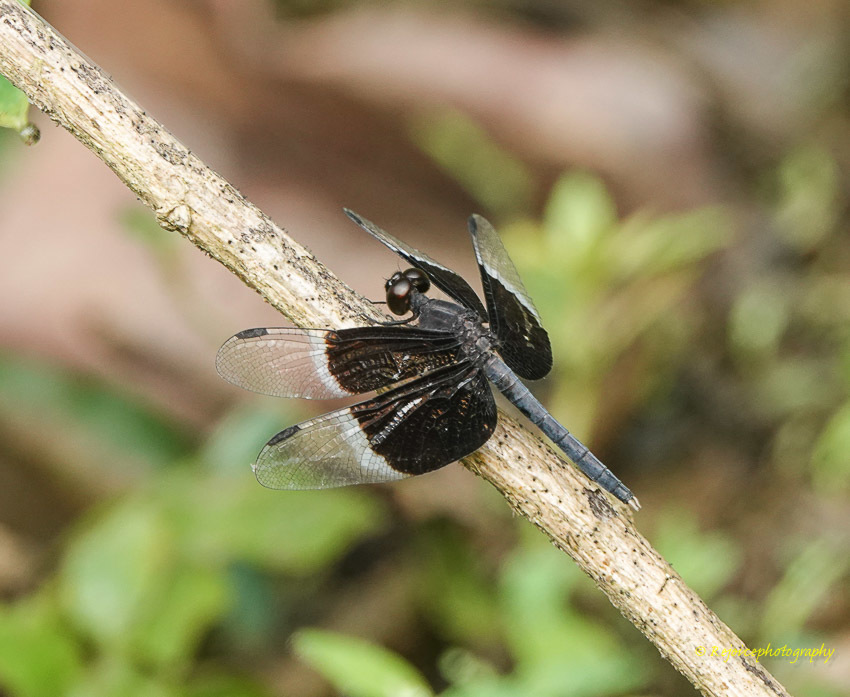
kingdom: Animalia
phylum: Arthropoda
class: Insecta
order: Odonata
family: Libellulidae
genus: Neurothemis
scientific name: Neurothemis tullia
